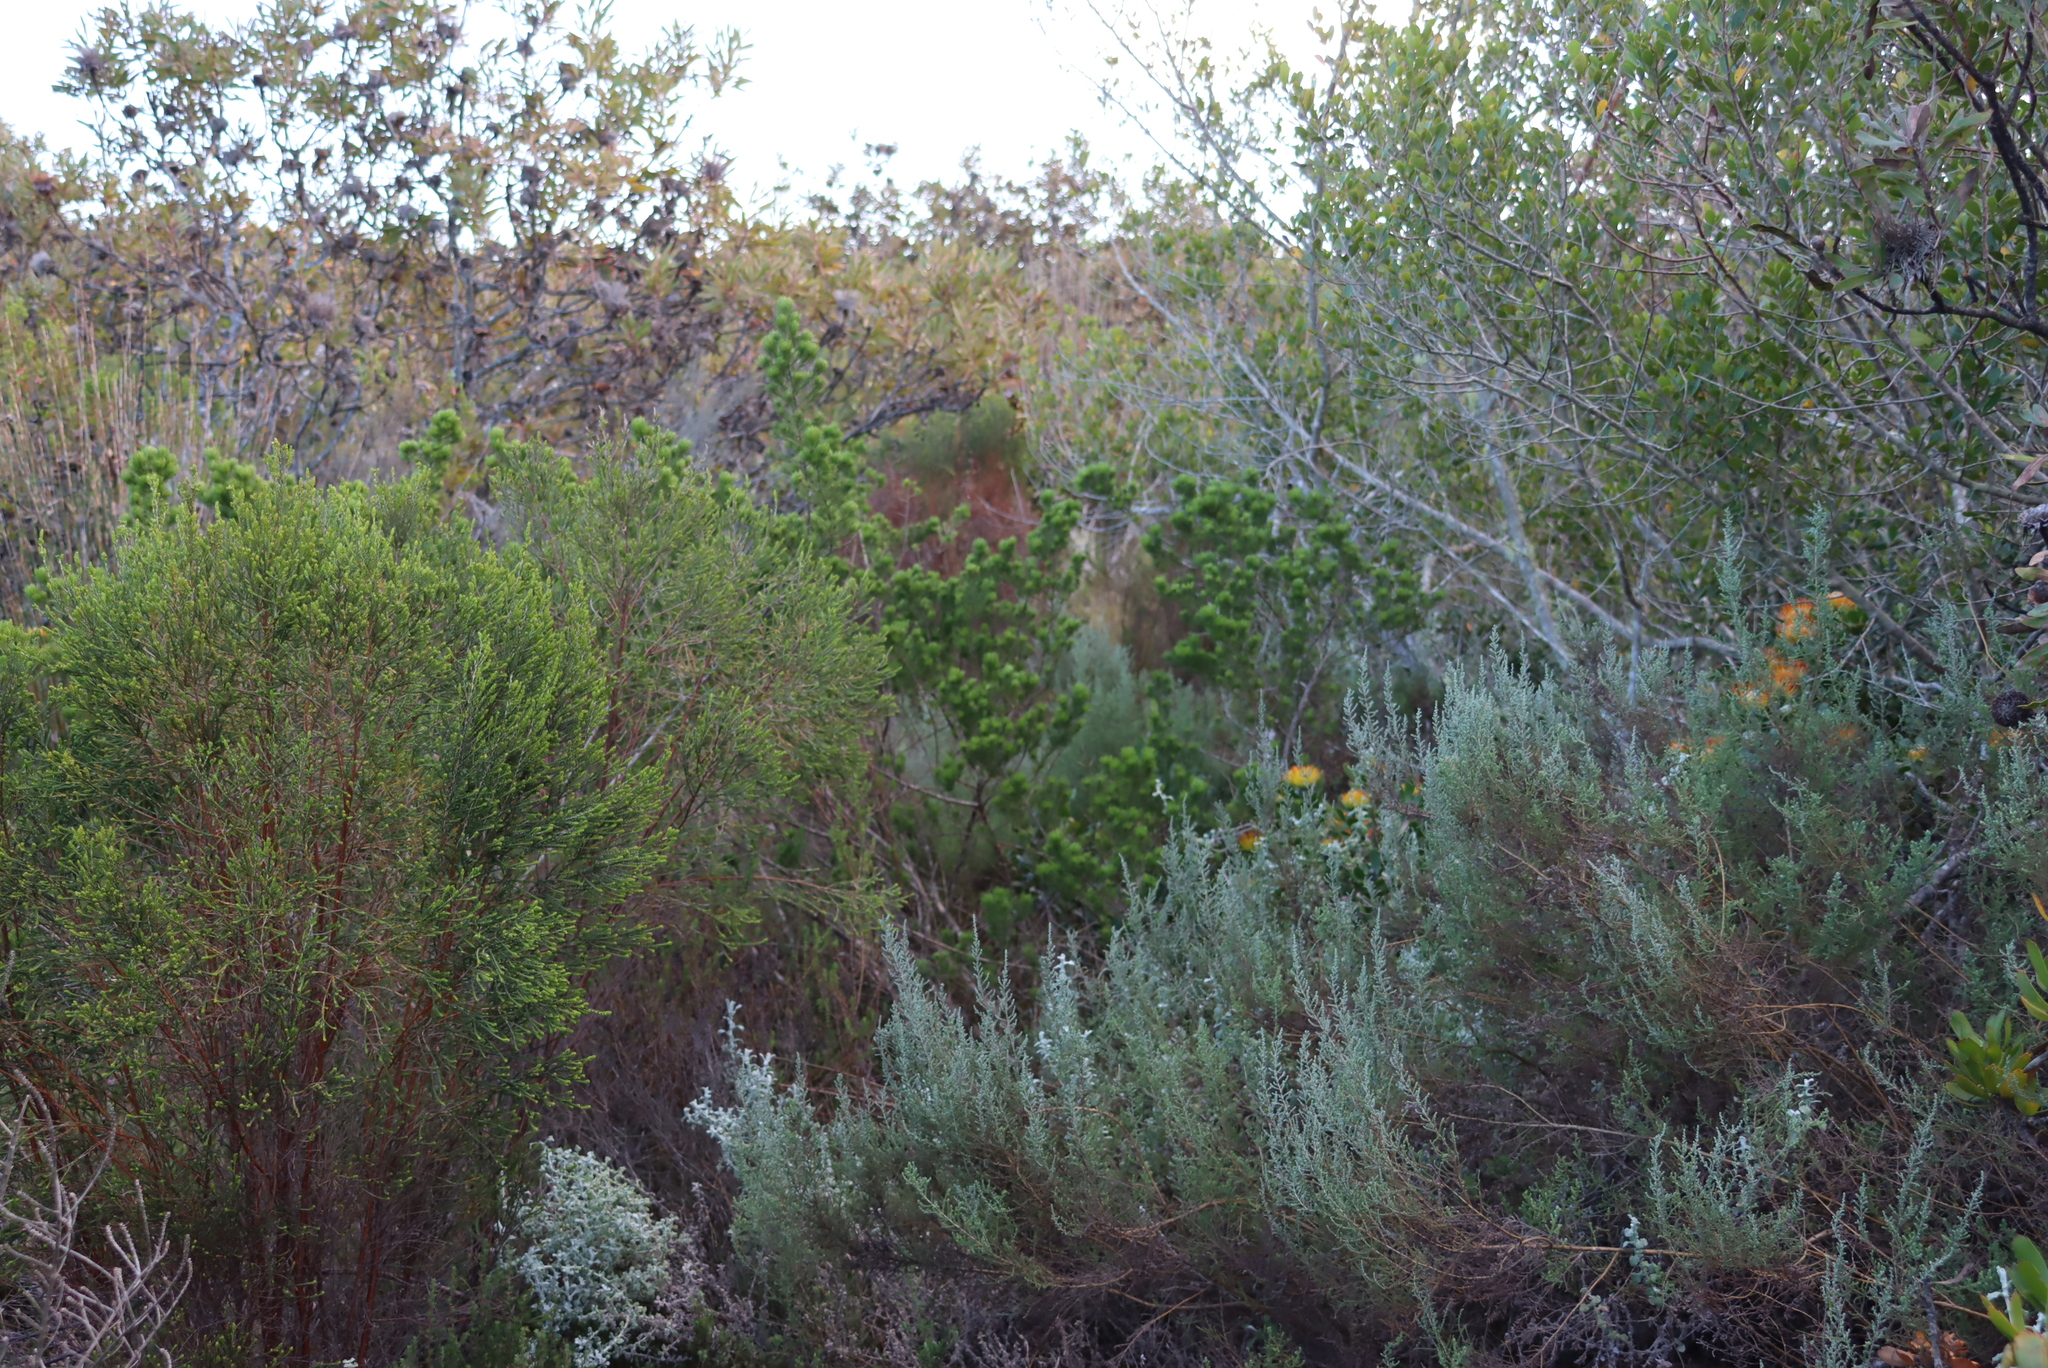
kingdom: Plantae
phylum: Tracheophyta
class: Magnoliopsida
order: Fabales
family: Fabaceae
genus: Psoralea
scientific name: Psoralea muirii
